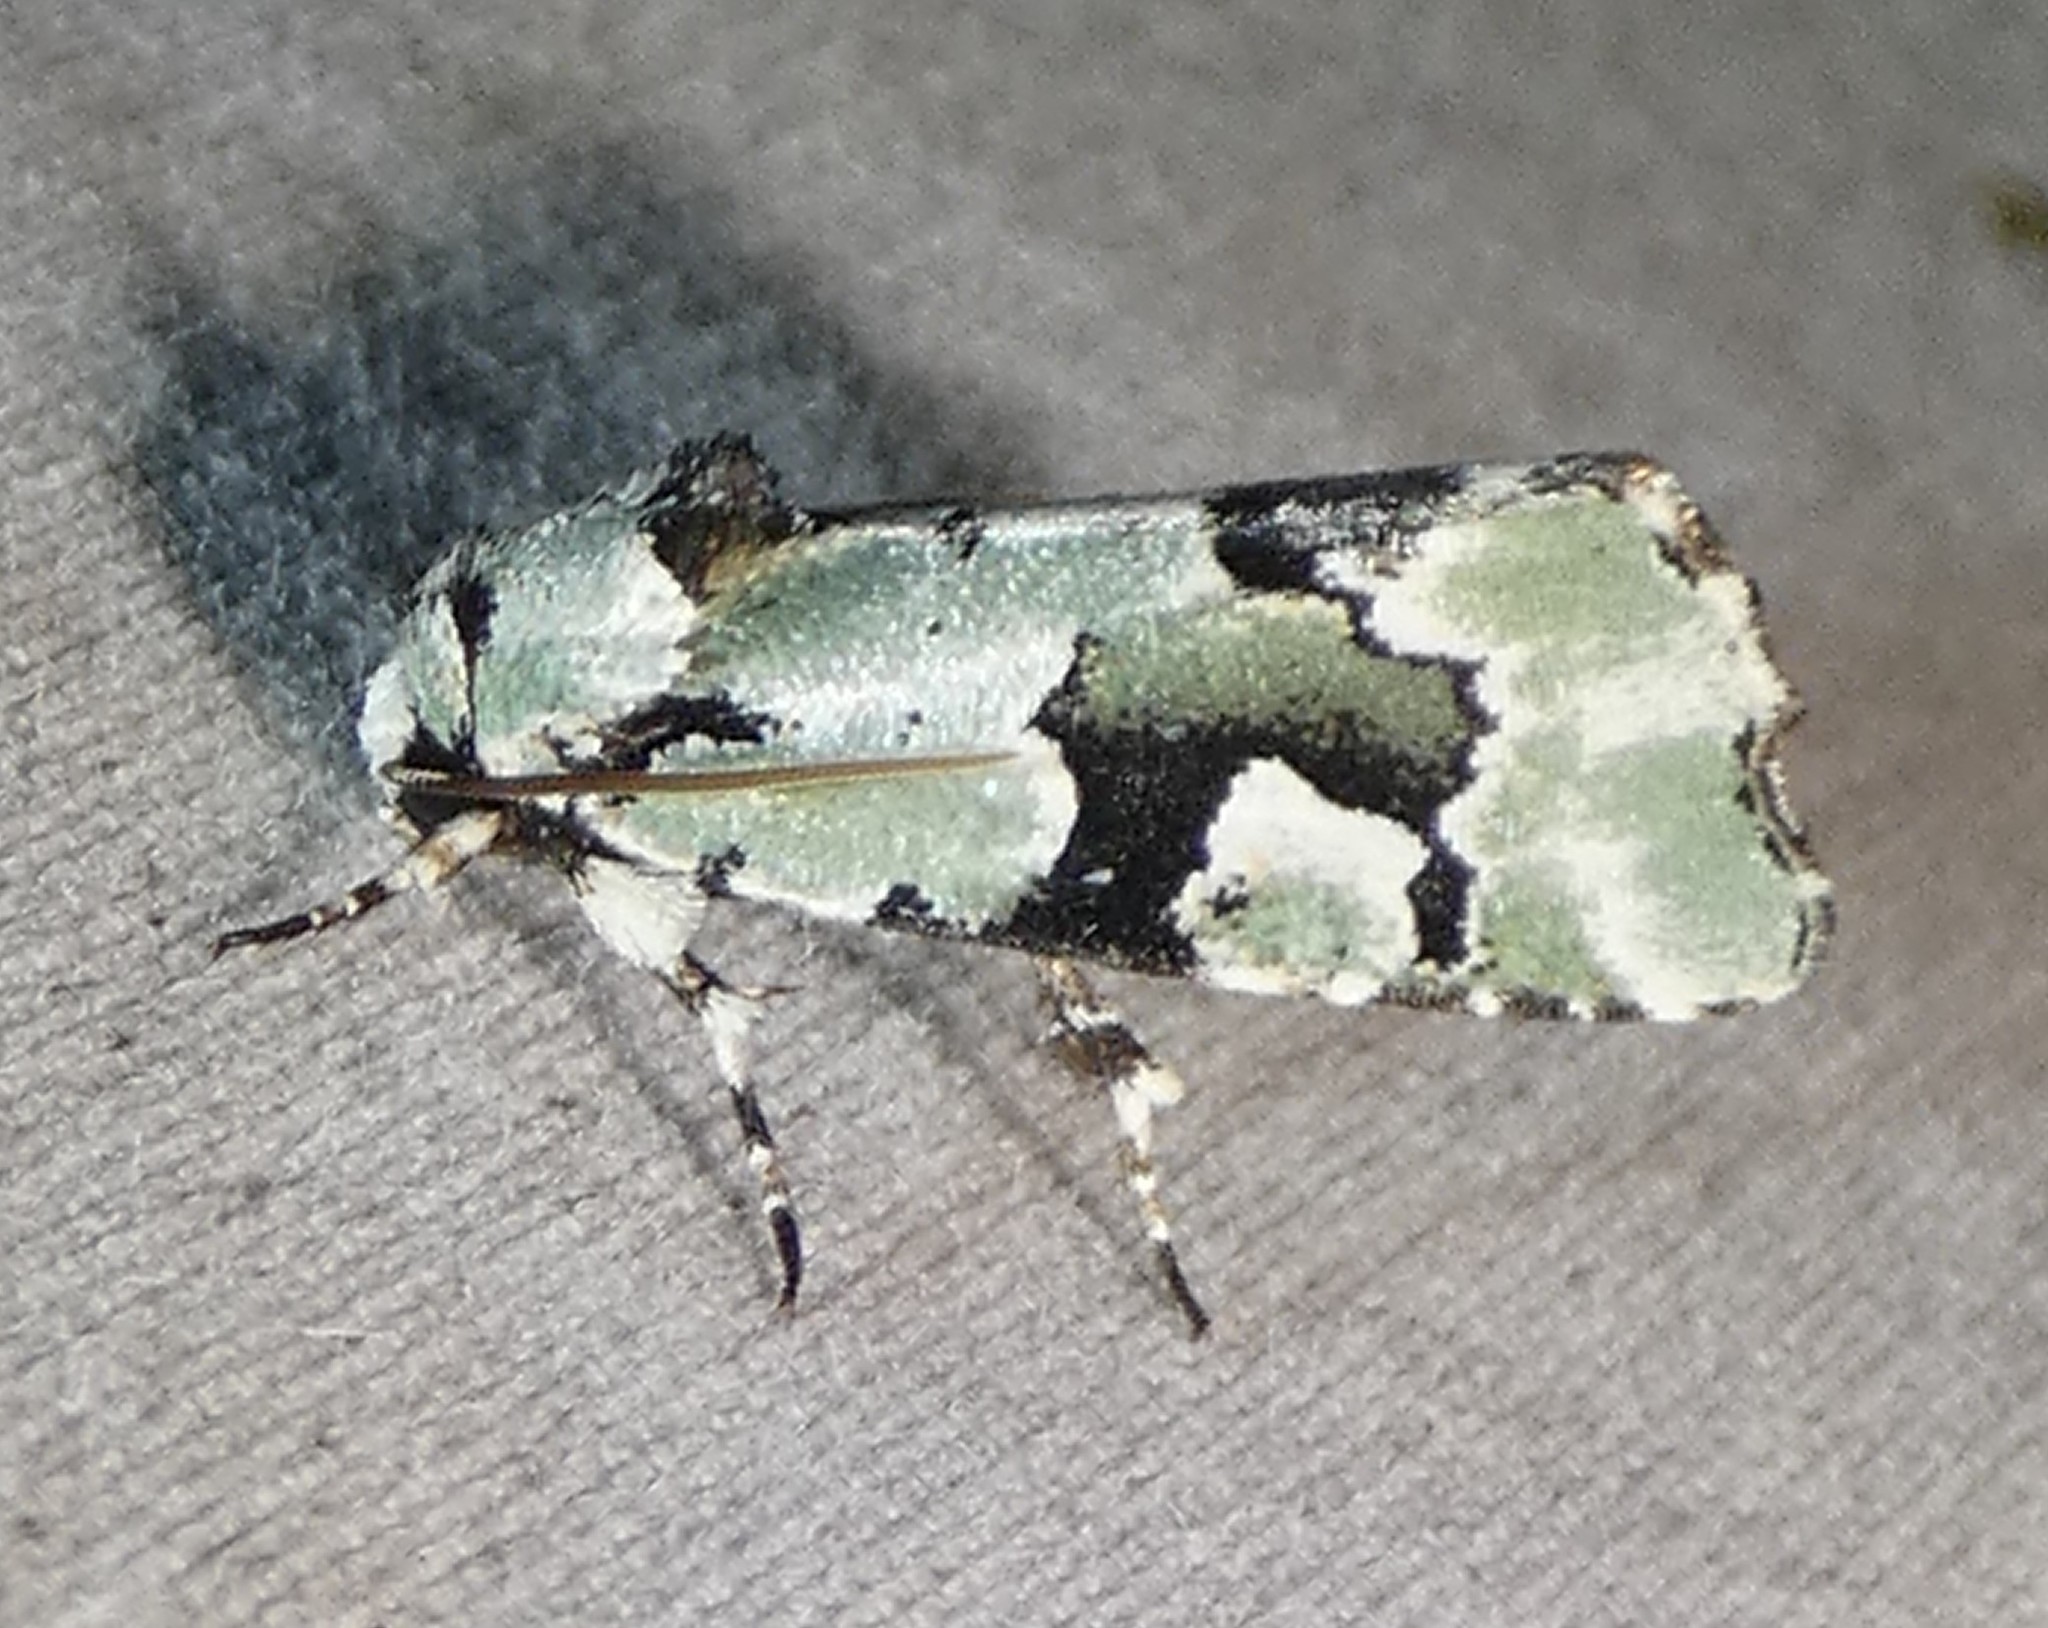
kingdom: Animalia
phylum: Arthropoda
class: Insecta
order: Lepidoptera
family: Noctuidae
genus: Emarginea
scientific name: Emarginea percara
